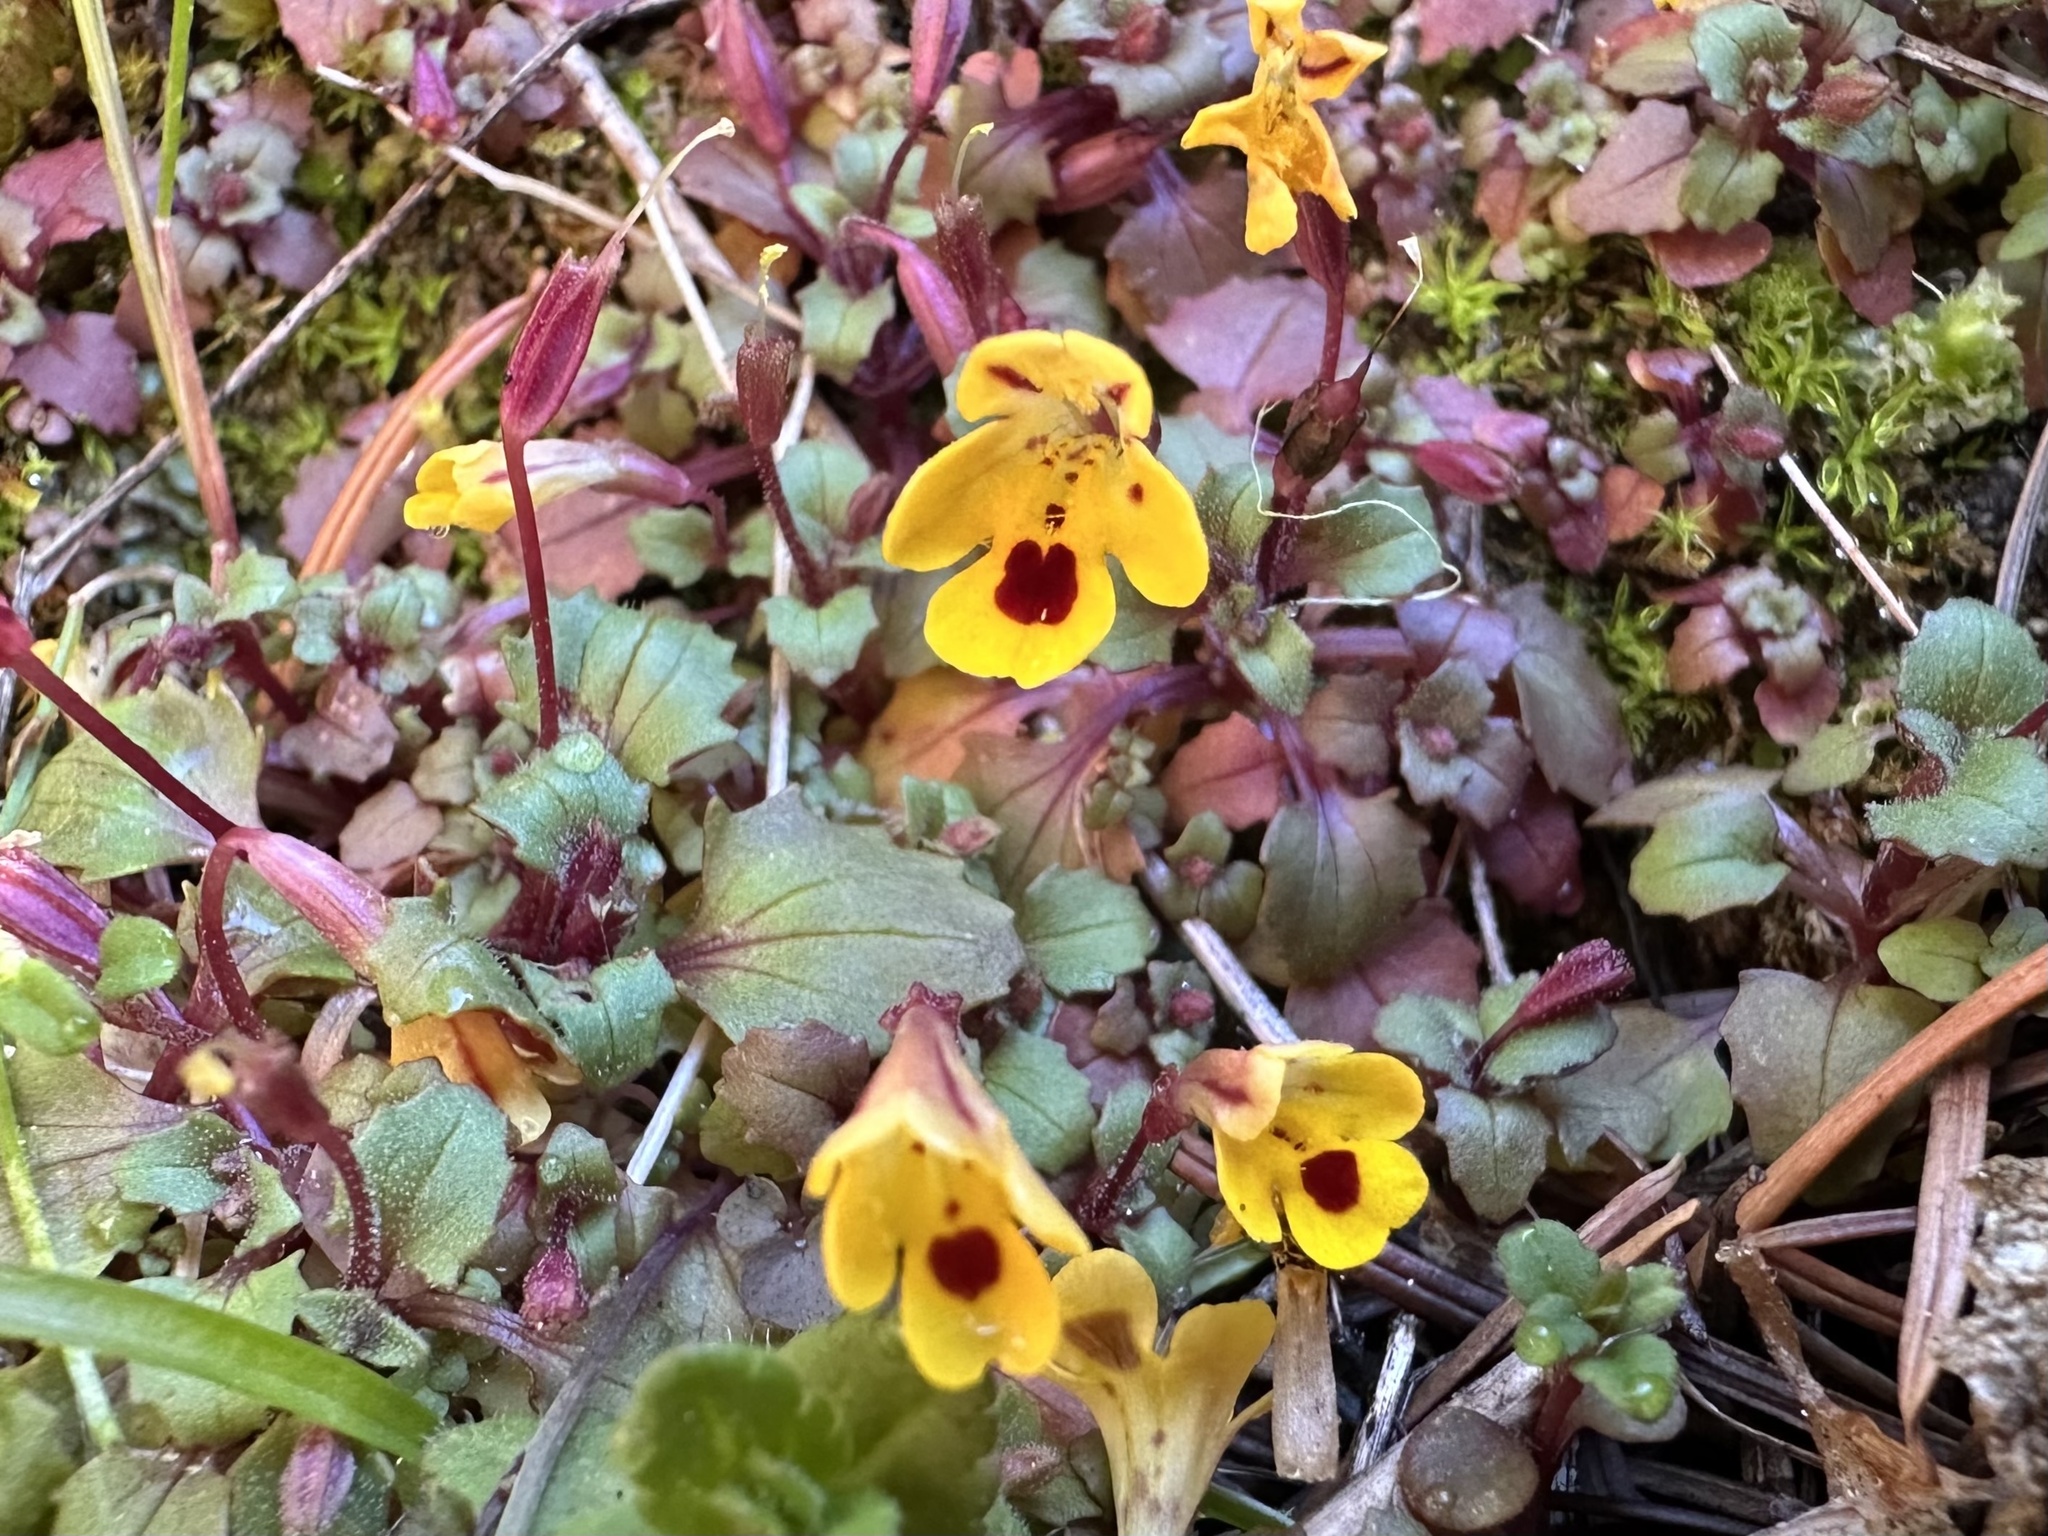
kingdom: Plantae
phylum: Tracheophyta
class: Magnoliopsida
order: Lamiales
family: Phrymaceae
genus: Erythranthe
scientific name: Erythranthe alsinoides
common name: Chickweed monkeyflower
